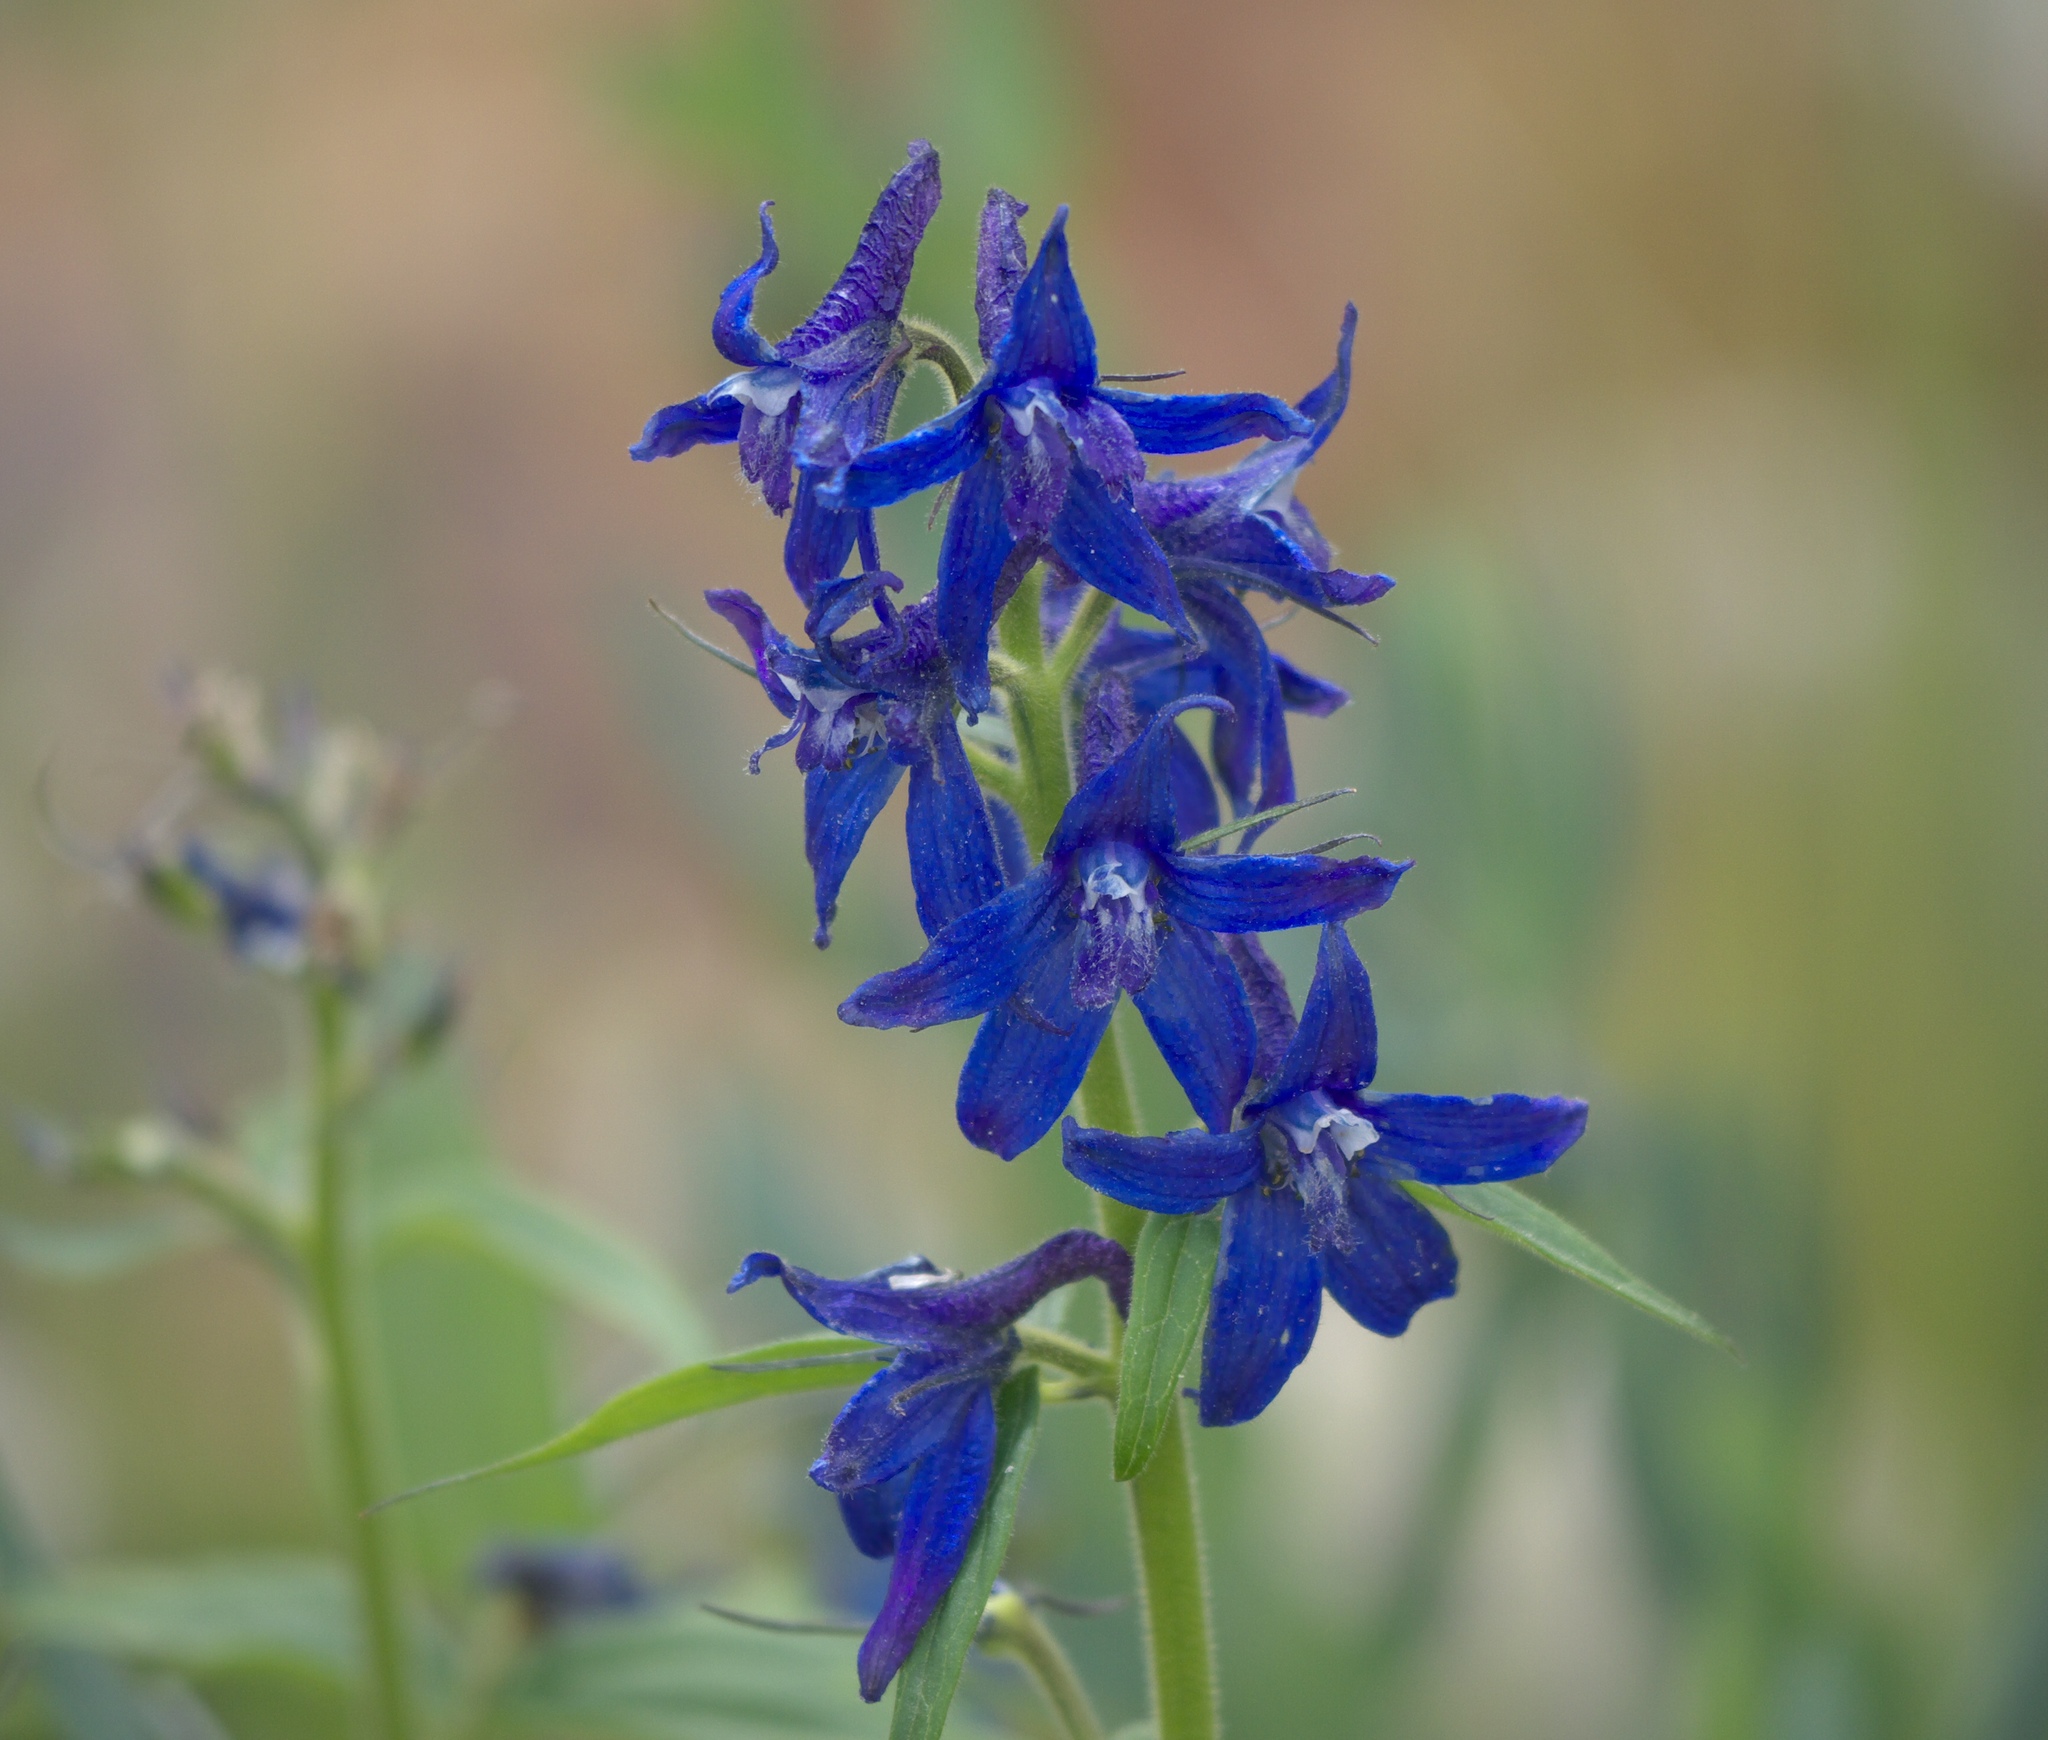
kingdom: Plantae
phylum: Tracheophyta
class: Magnoliopsida
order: Ranunculales
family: Ranunculaceae
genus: Delphinium
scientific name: Delphinium barbeyi
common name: Subalpine larkspur
